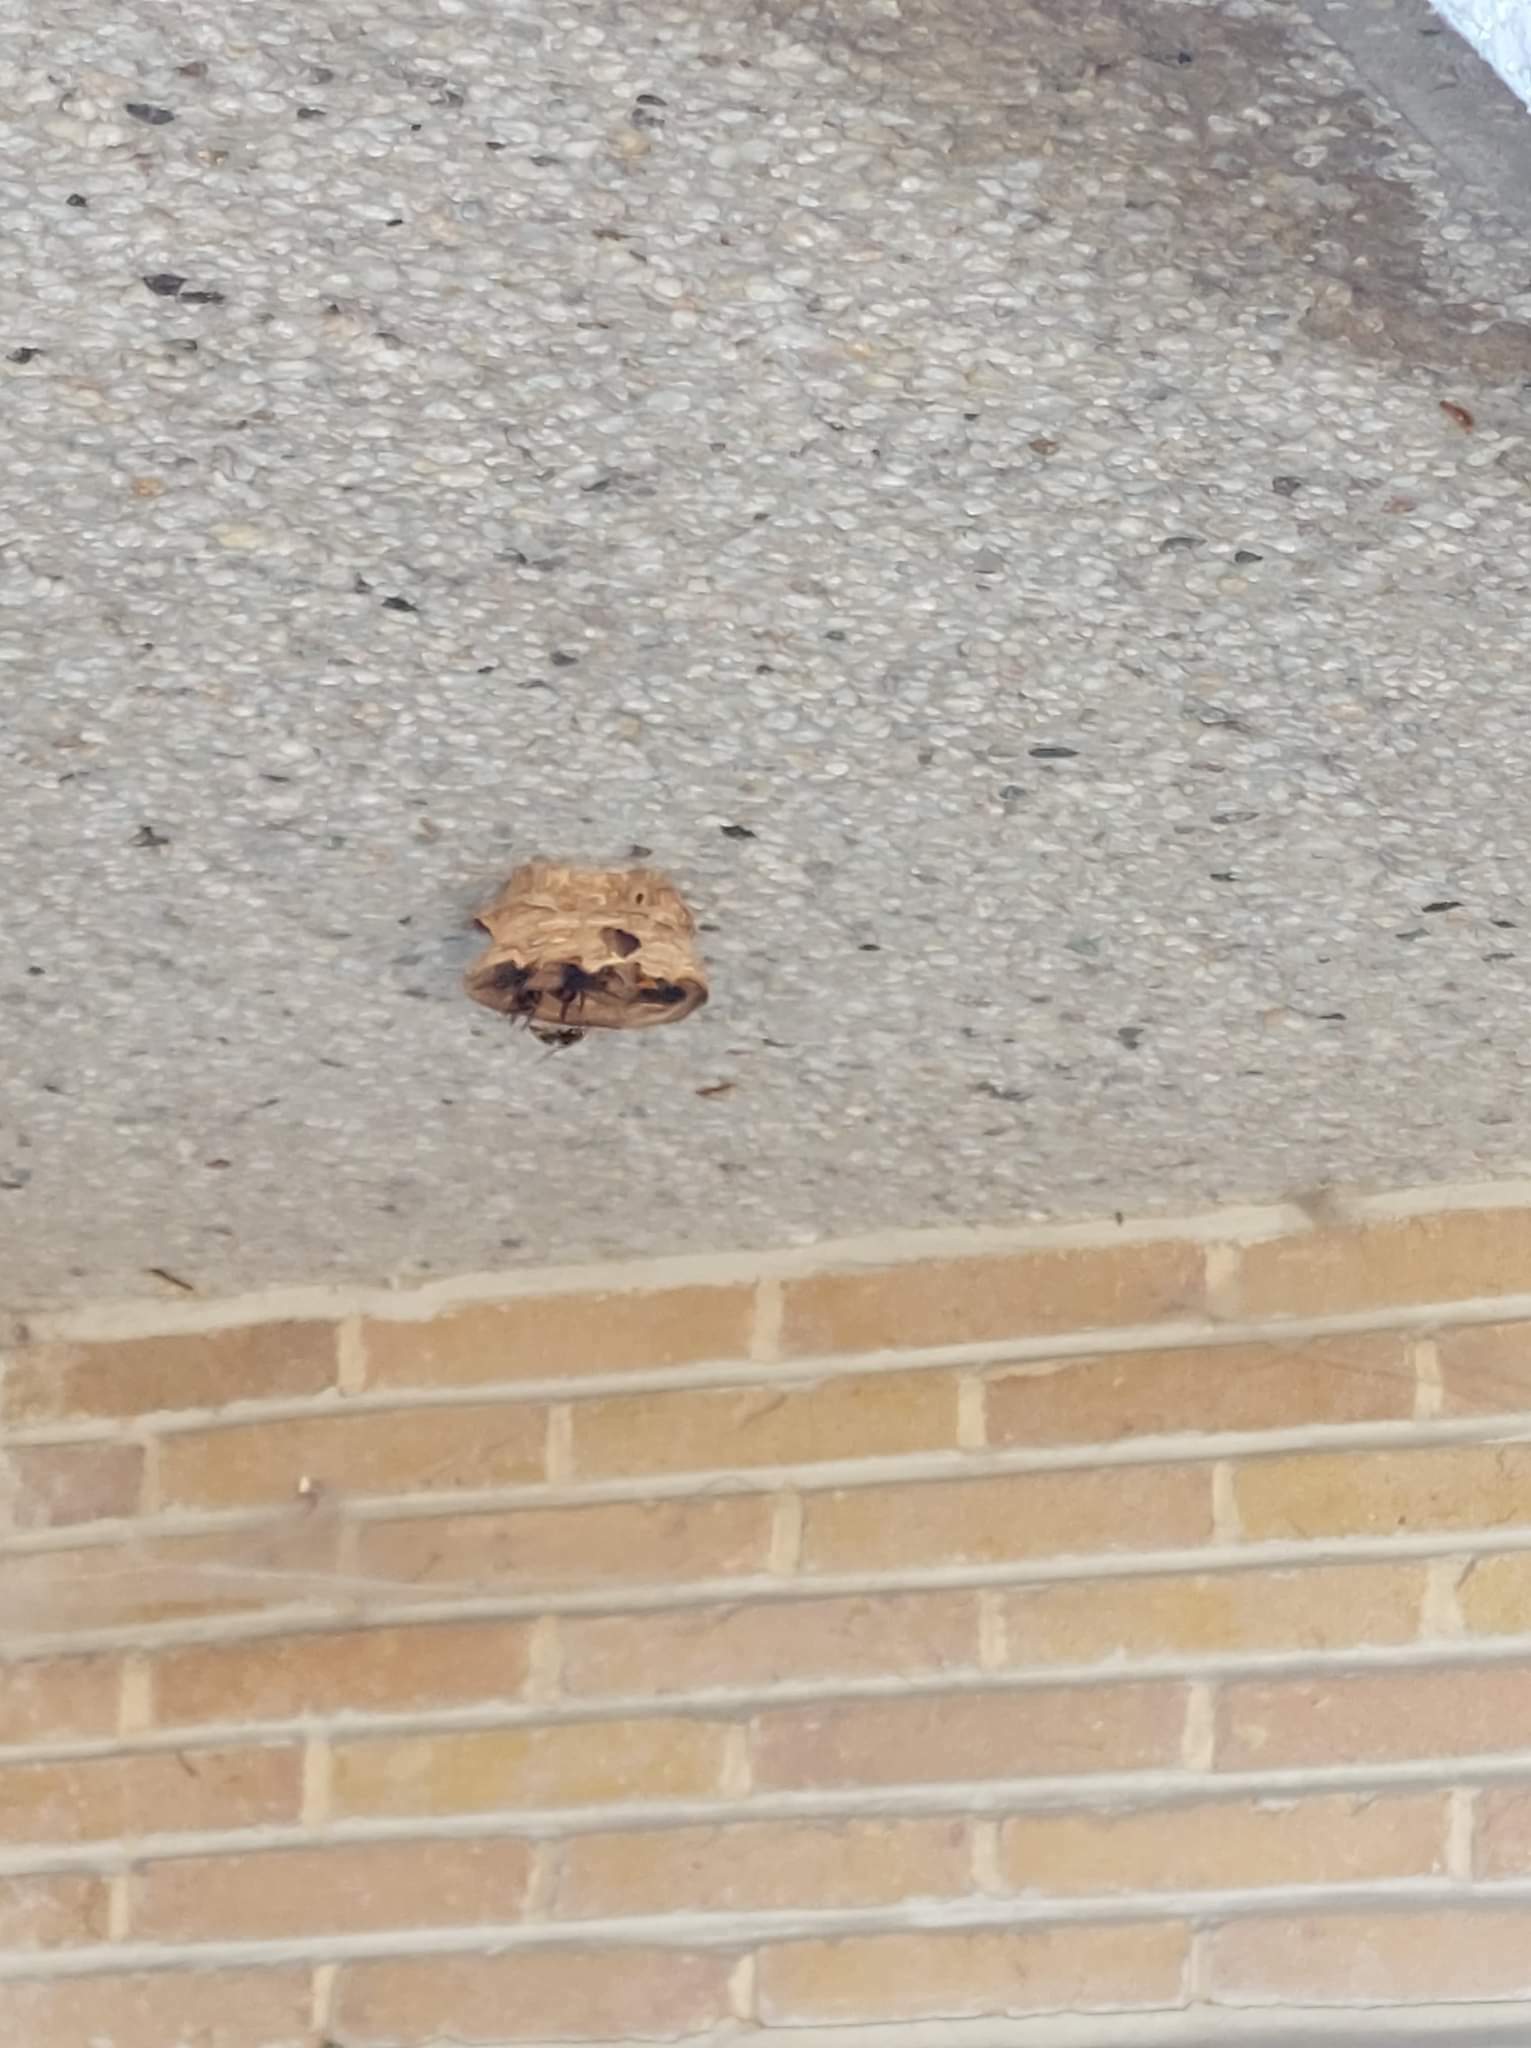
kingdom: Animalia
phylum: Arthropoda
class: Insecta
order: Hymenoptera
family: Vespidae
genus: Vespa
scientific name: Vespa velutina
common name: Asian hornet
